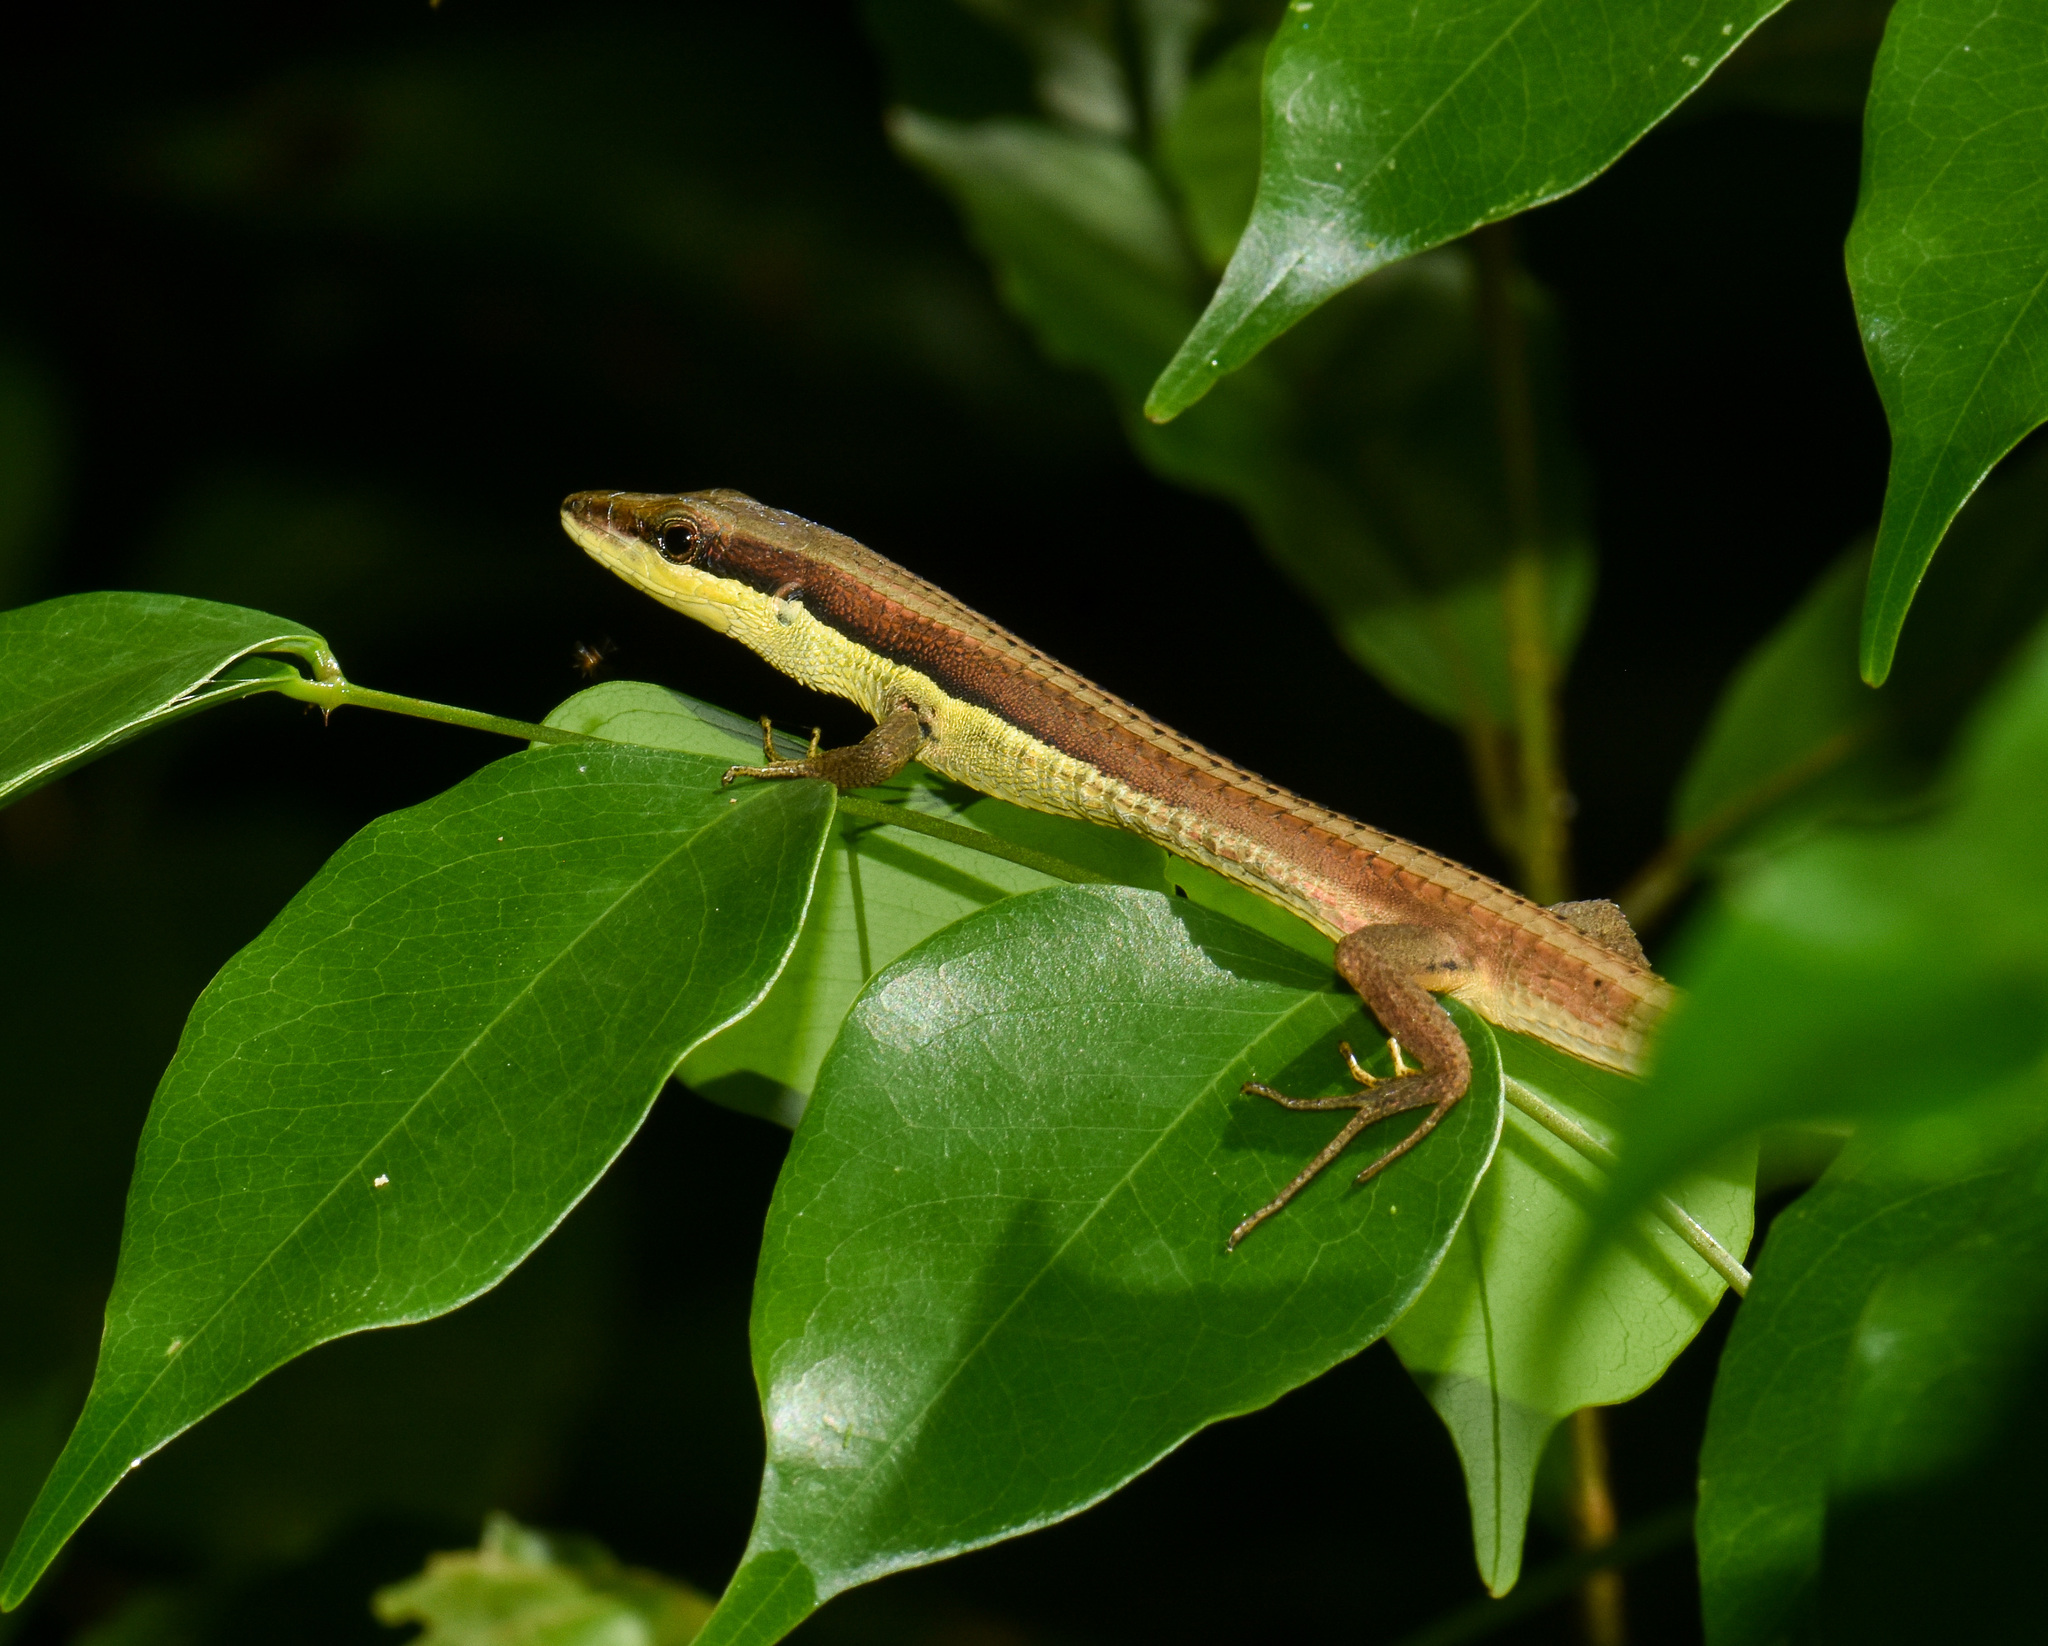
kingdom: Animalia
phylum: Chordata
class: Squamata
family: Lacertidae
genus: Takydromus
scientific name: Takydromus khasiensis
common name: Java grass lizard
